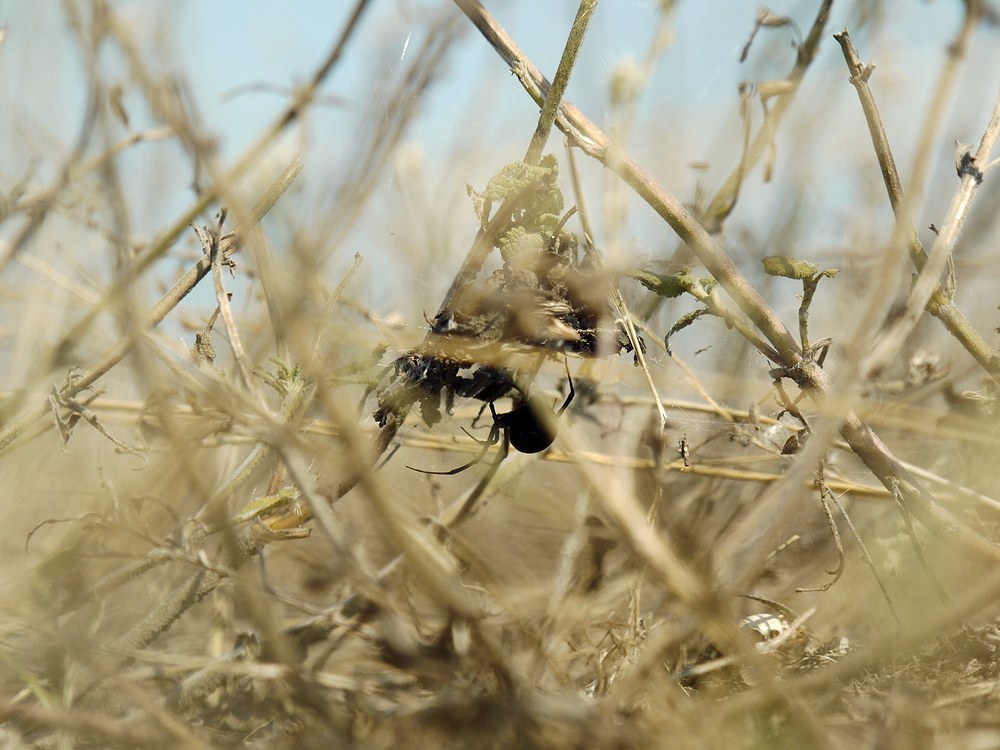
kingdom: Animalia
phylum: Arthropoda
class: Arachnida
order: Araneae
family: Theridiidae
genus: Latrodectus
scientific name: Latrodectus tredecimguttatus
